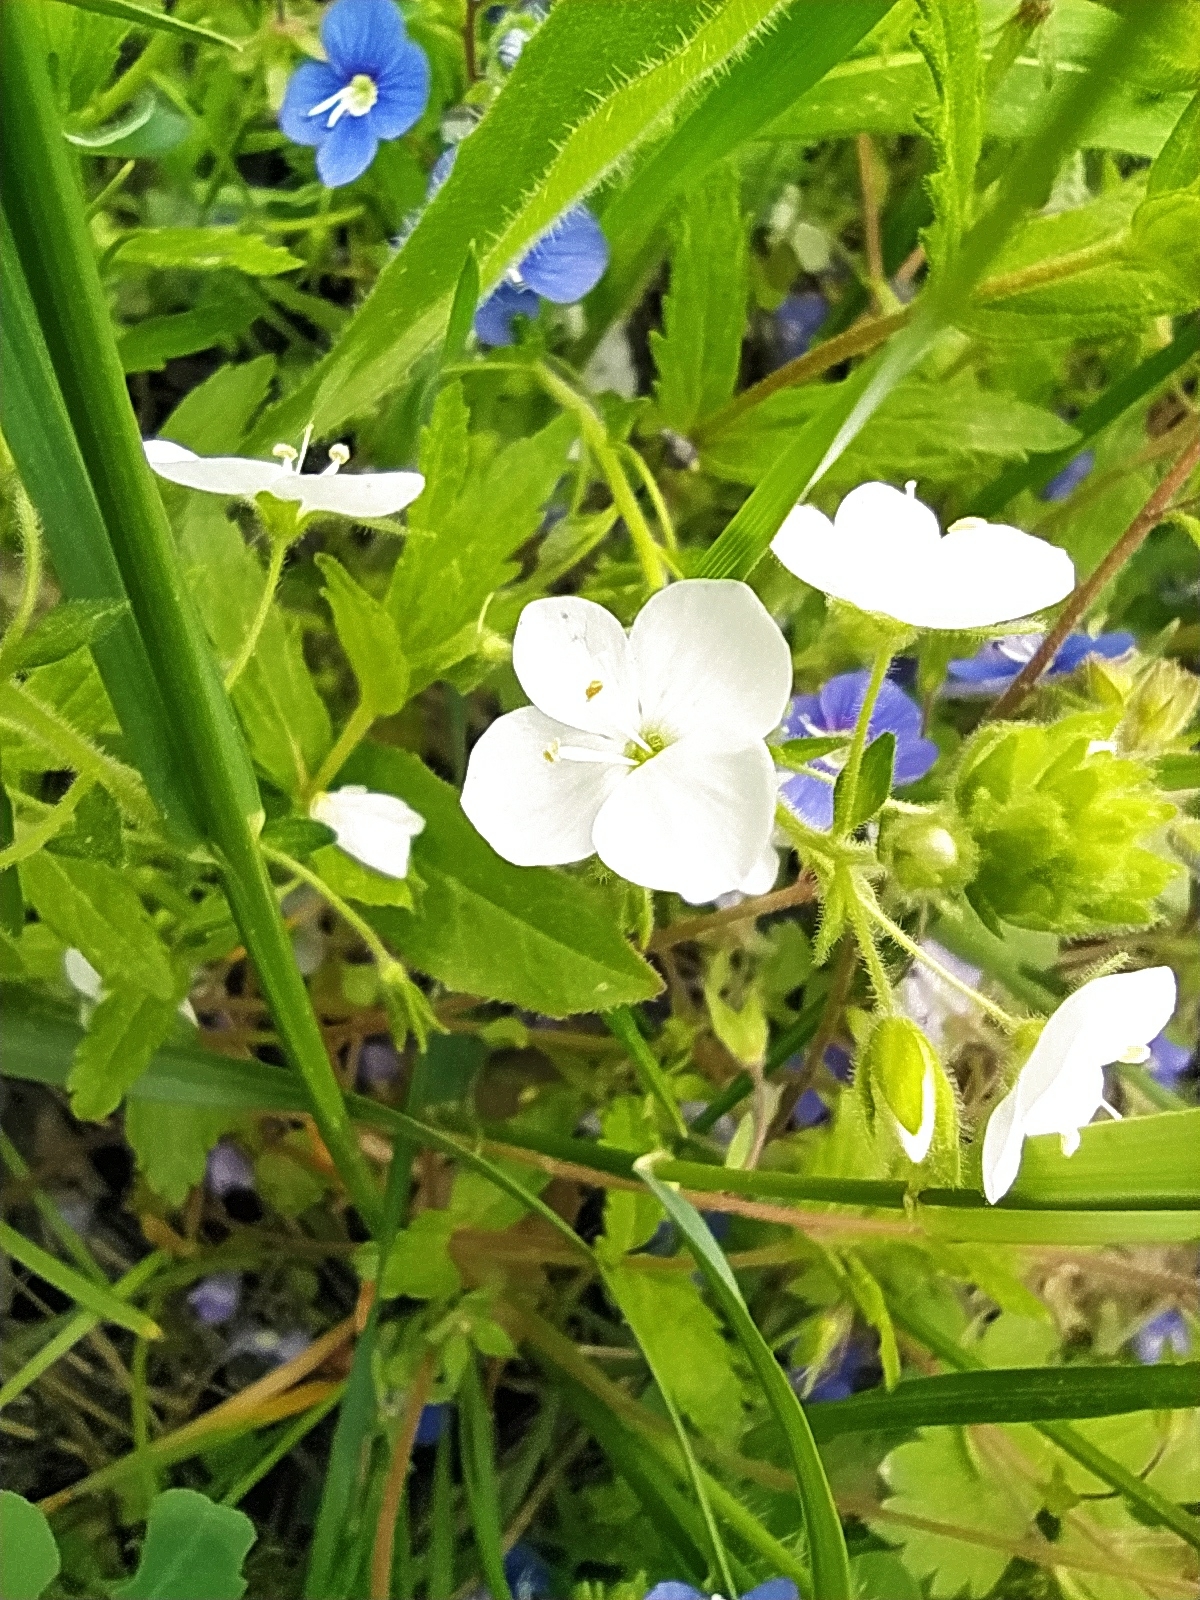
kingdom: Plantae
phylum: Tracheophyta
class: Magnoliopsida
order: Lamiales
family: Plantaginaceae
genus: Veronica
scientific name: Veronica
